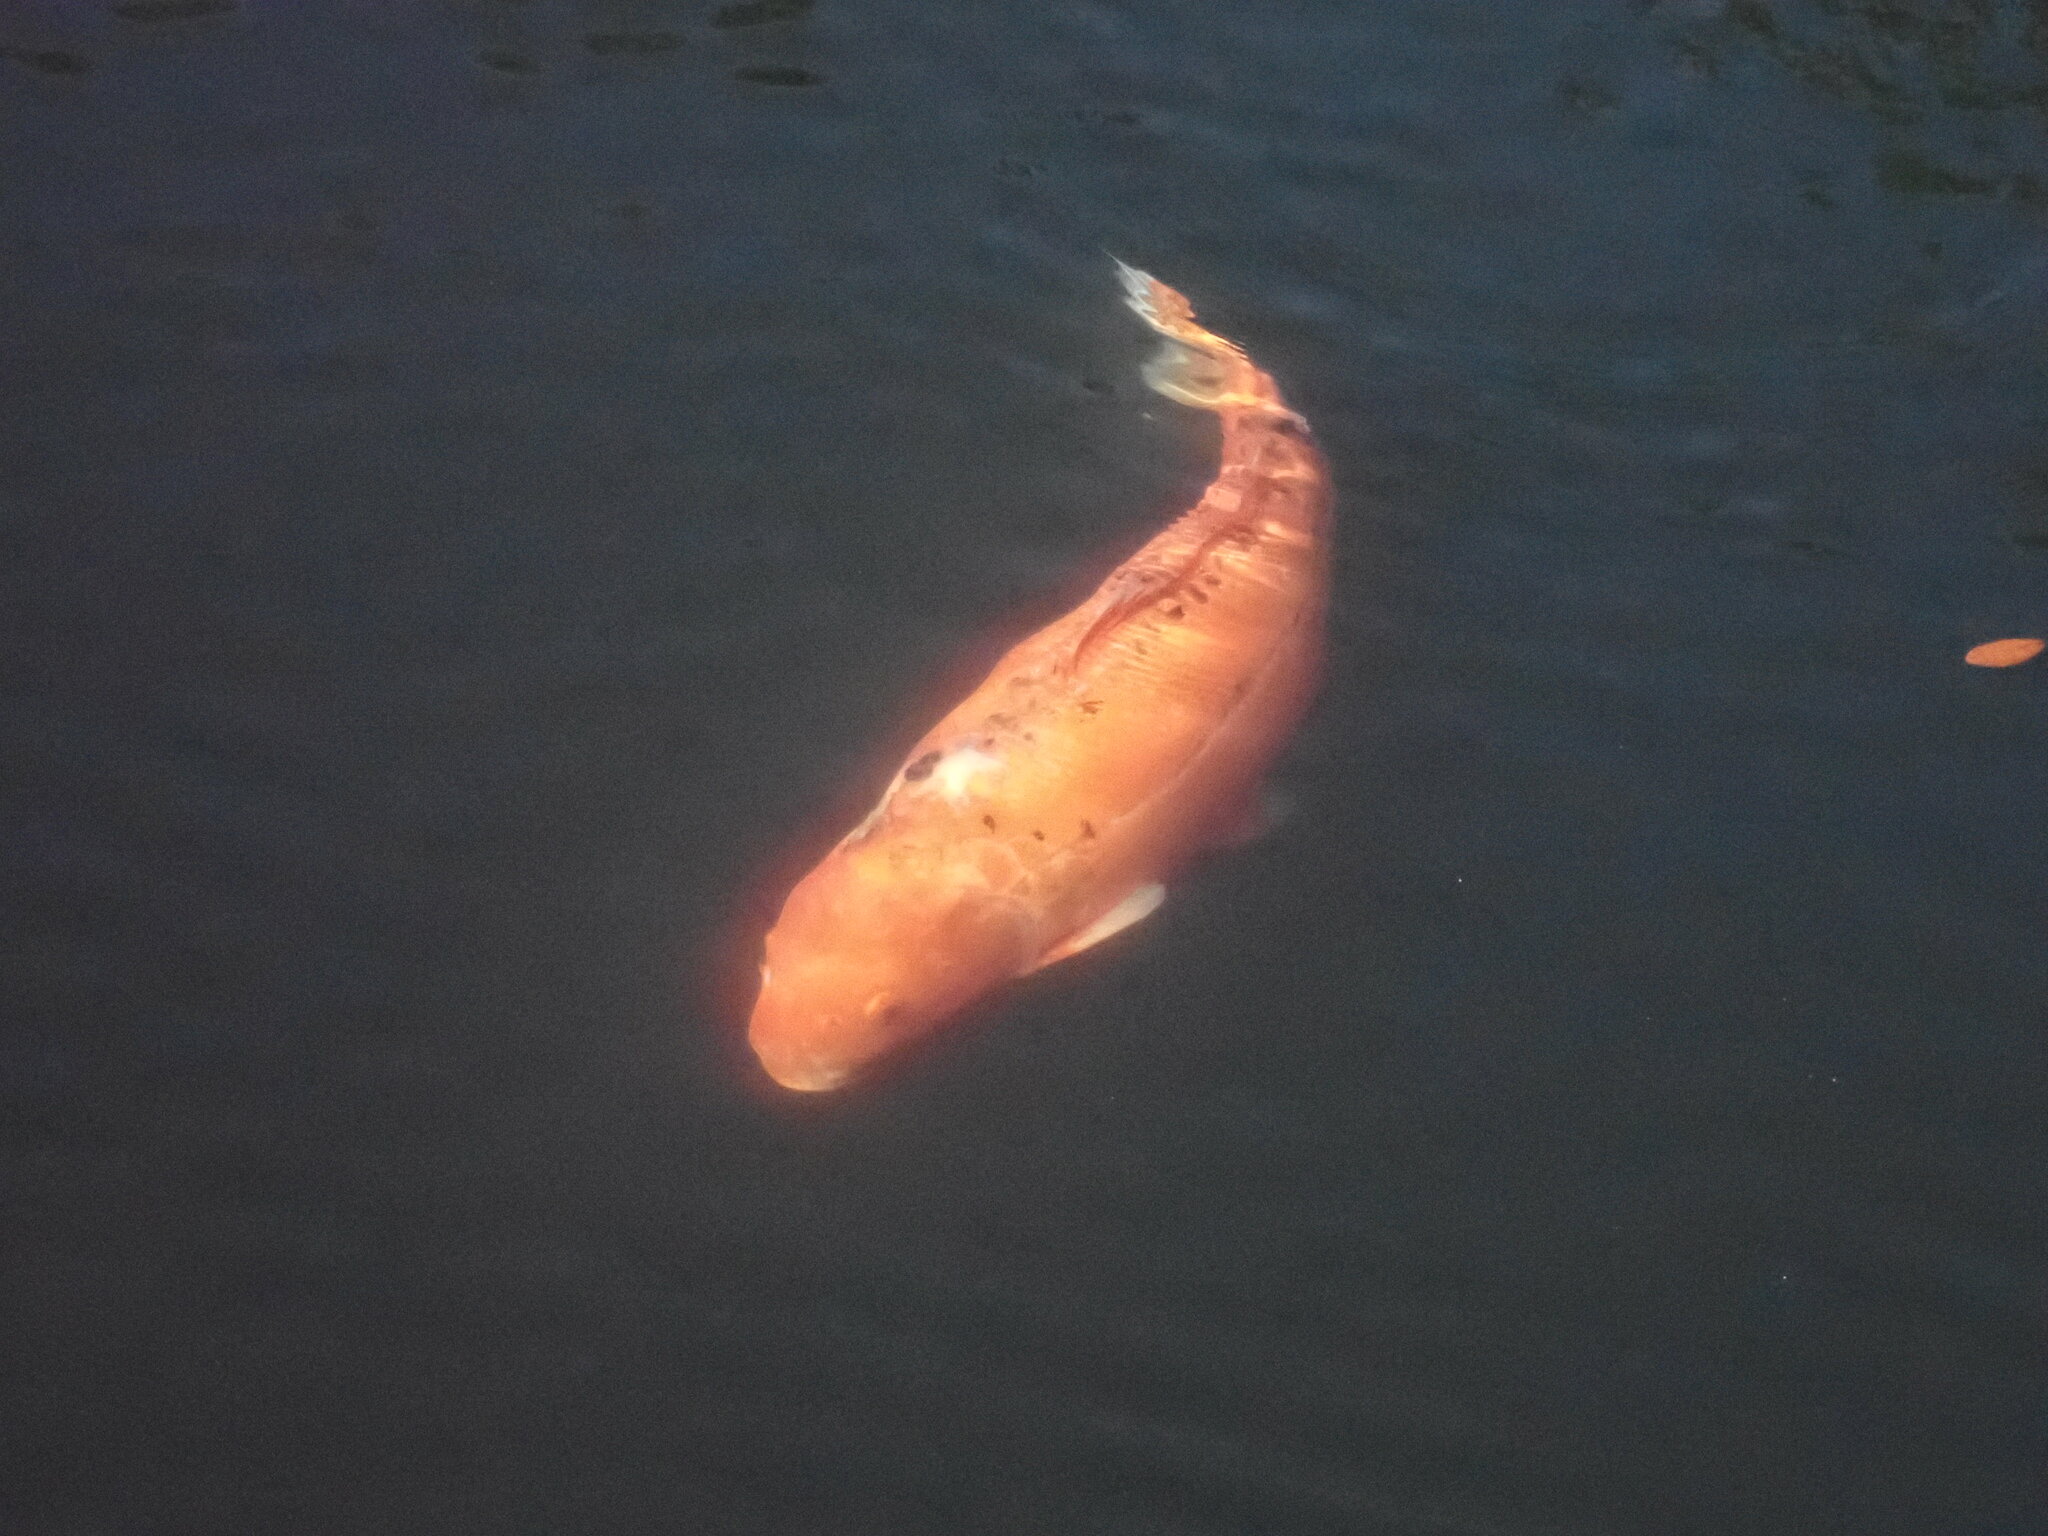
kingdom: Animalia
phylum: Chordata
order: Cypriniformes
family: Cyprinidae
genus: Cyprinus
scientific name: Cyprinus rubrofuscus
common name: Koi
